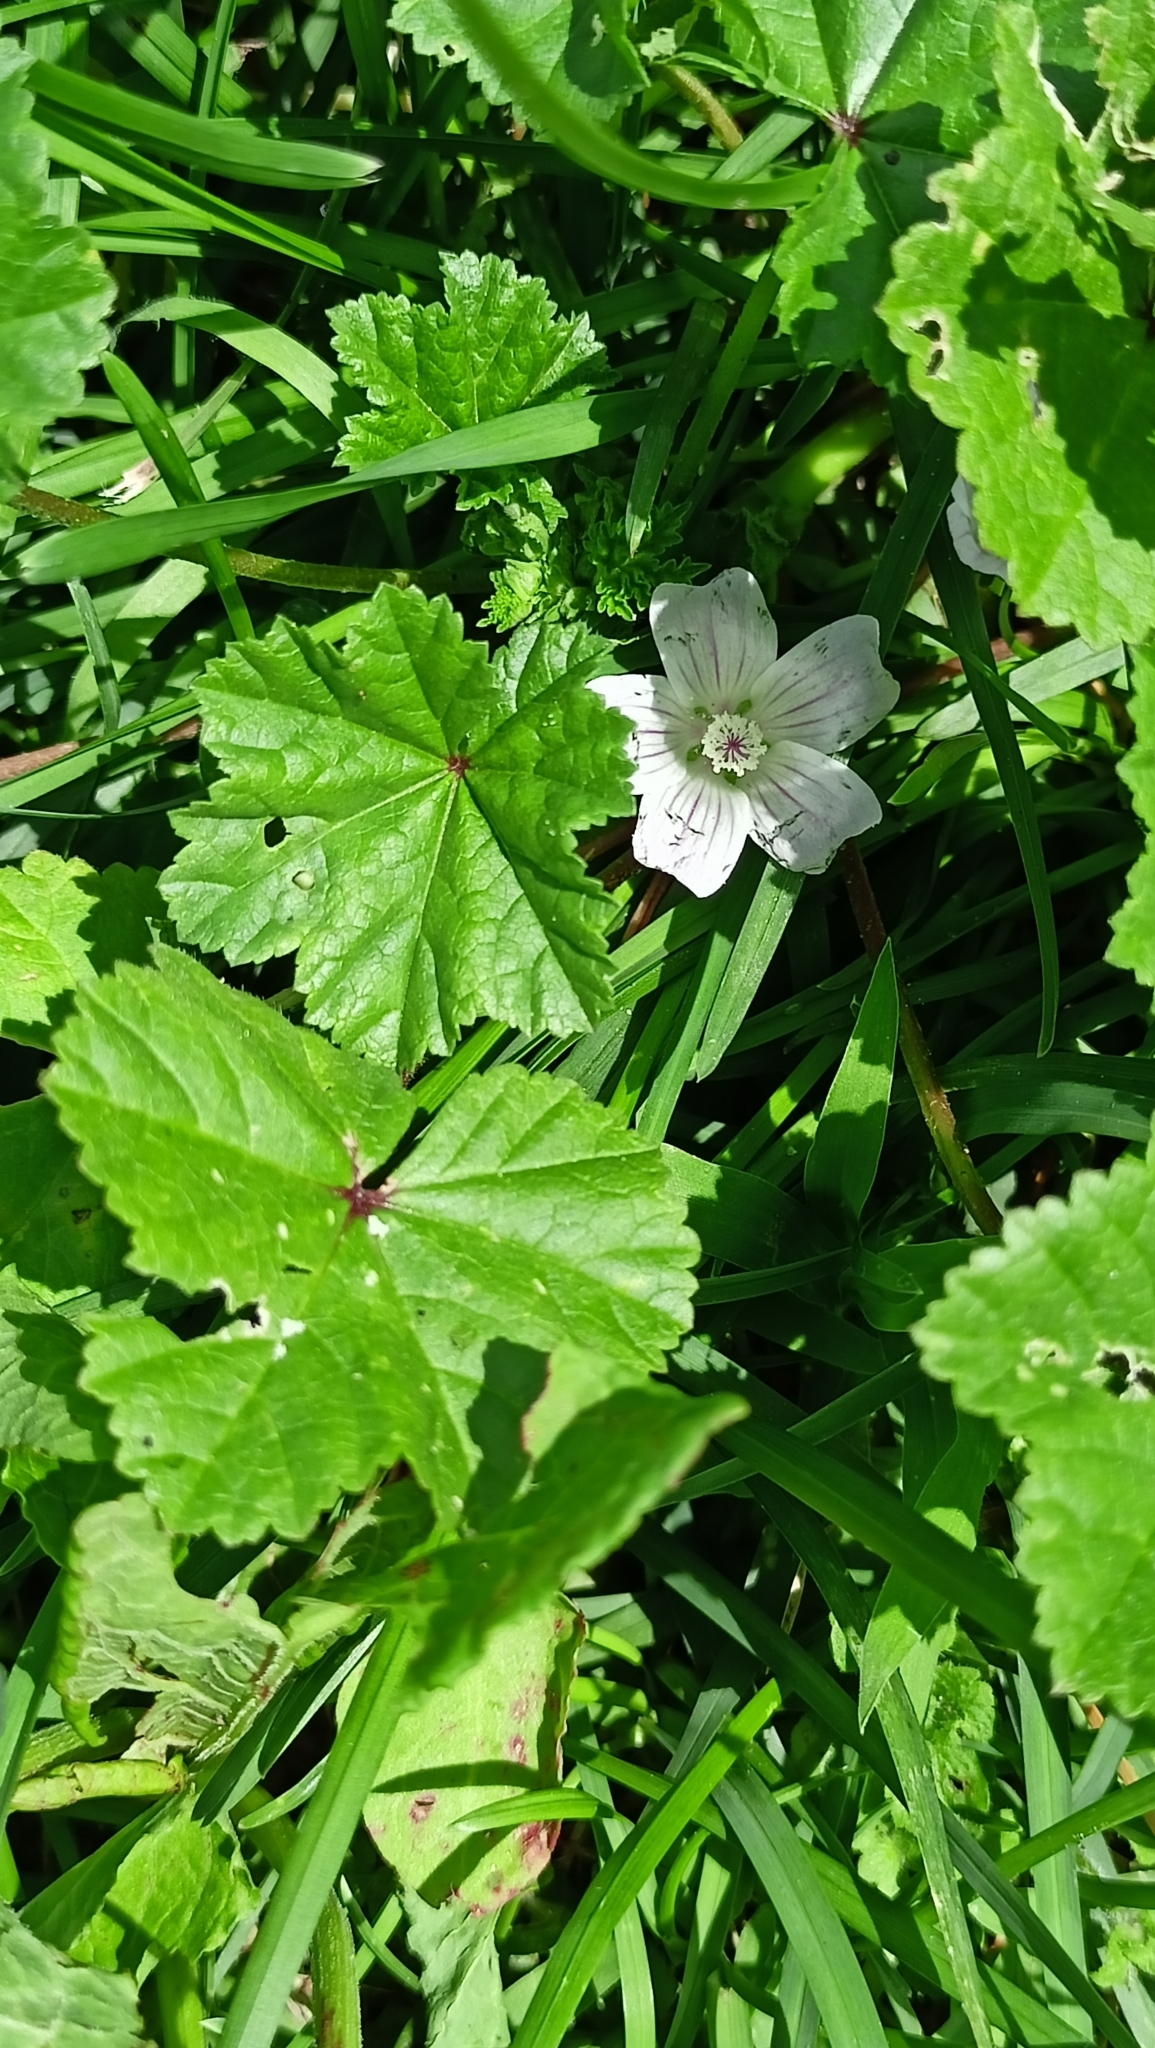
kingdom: Plantae
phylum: Tracheophyta
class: Magnoliopsida
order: Malvales
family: Malvaceae
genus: Malva
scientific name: Malva neglecta
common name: Common mallow
